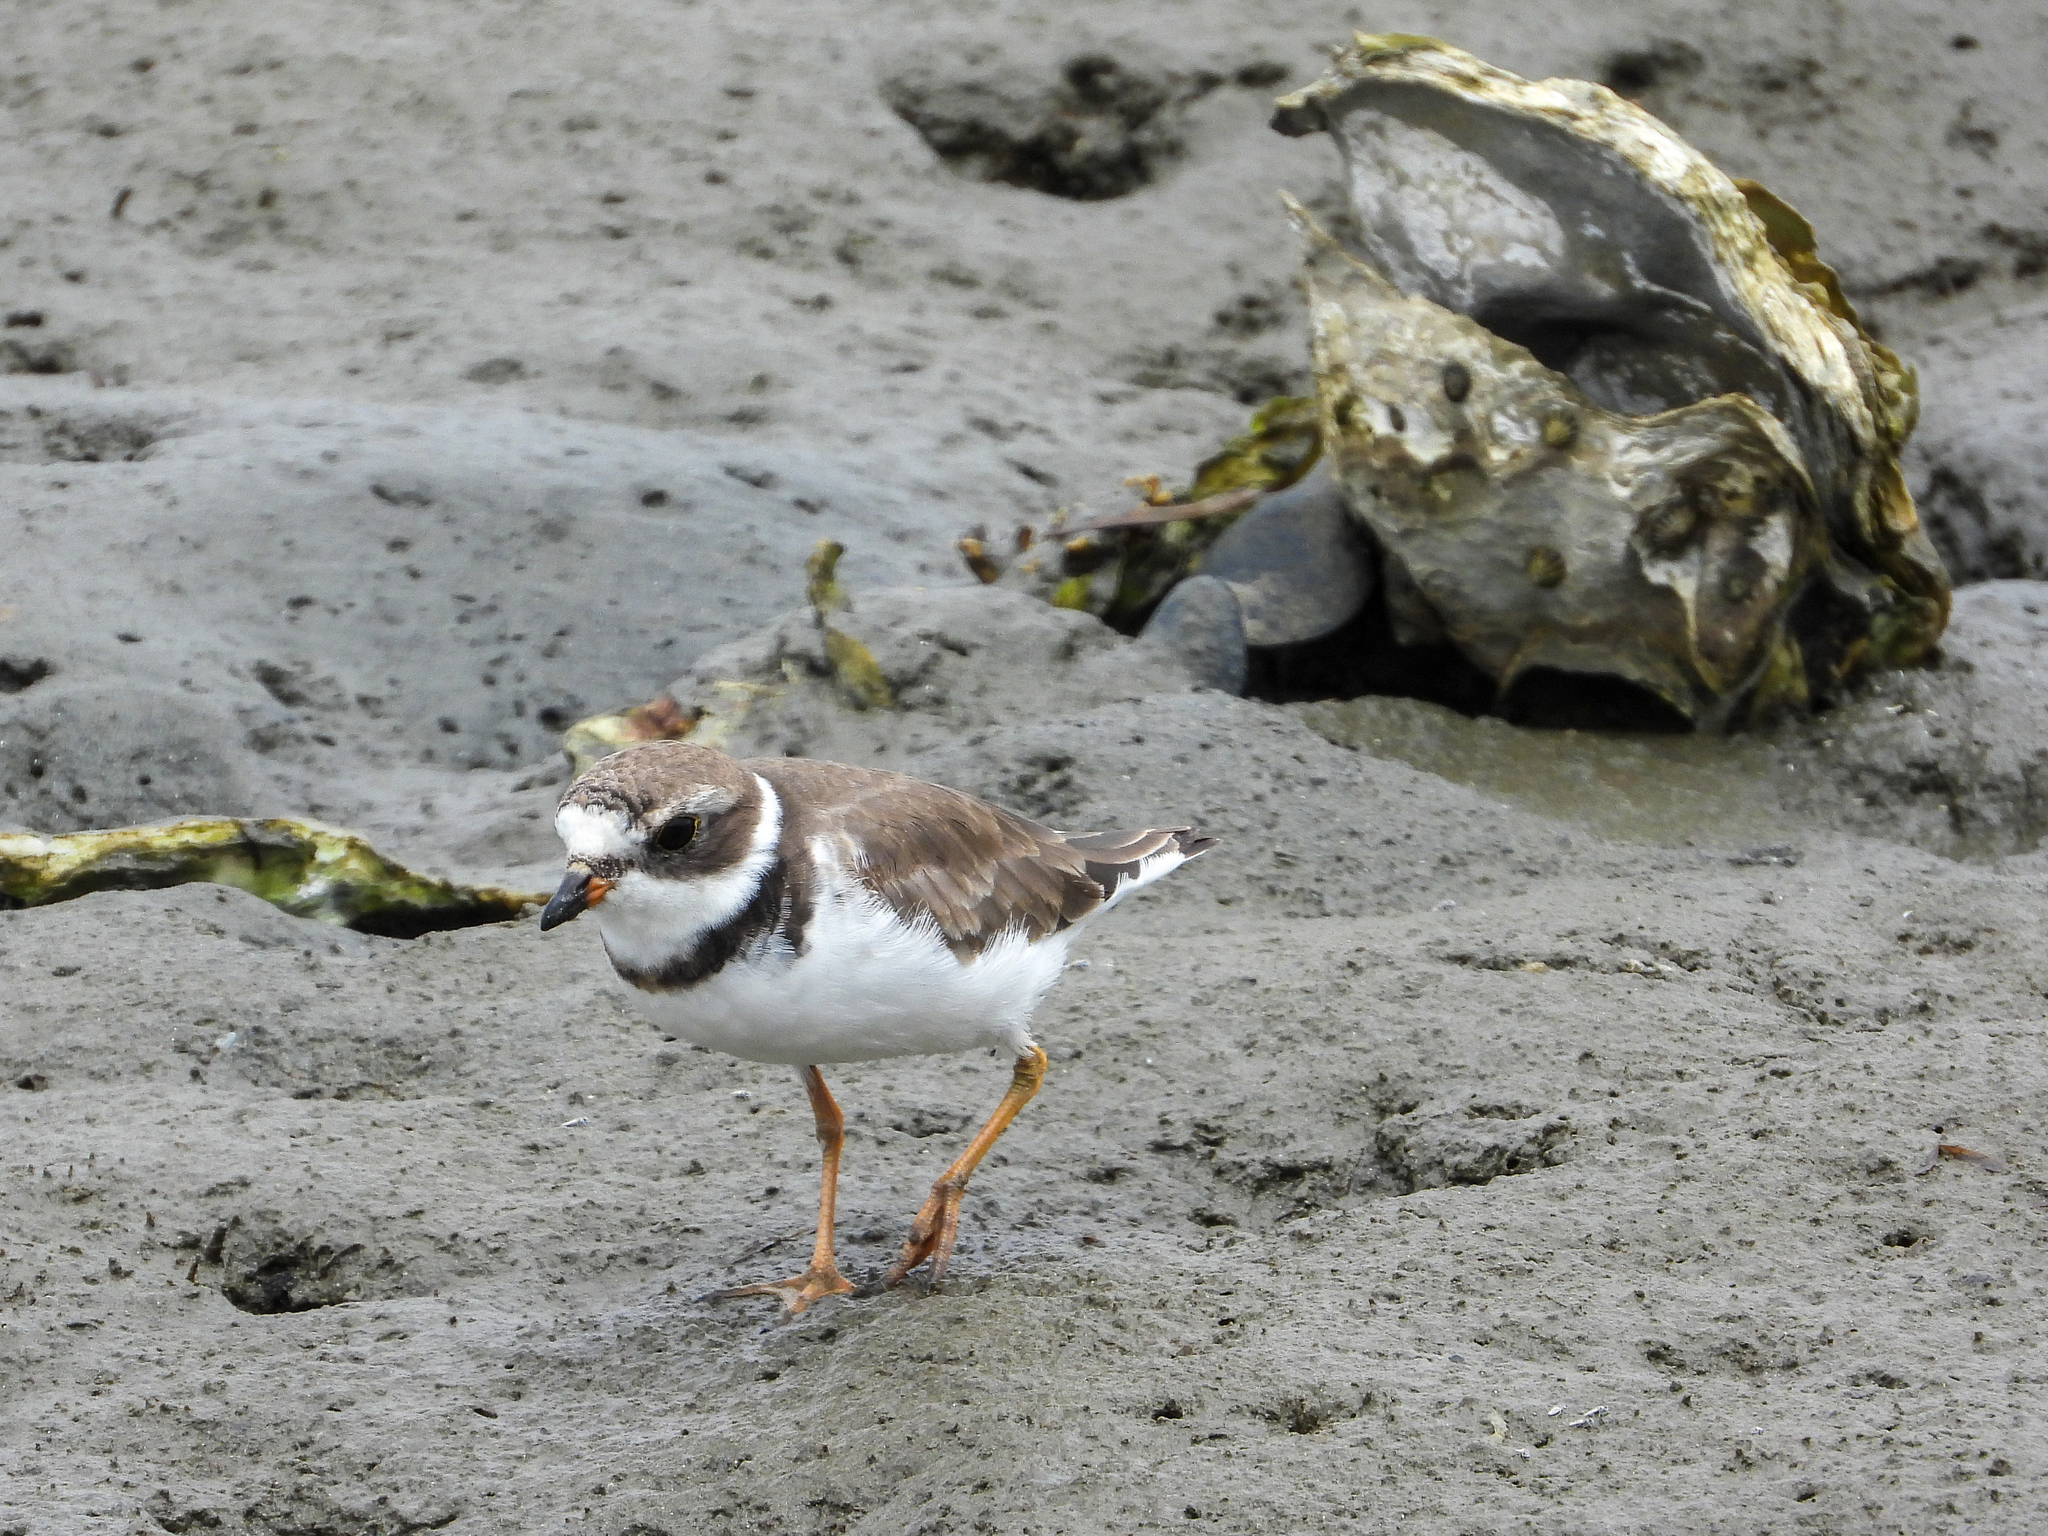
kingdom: Animalia
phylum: Chordata
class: Aves
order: Charadriiformes
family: Charadriidae
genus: Charadrius
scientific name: Charadrius semipalmatus
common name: Semipalmated plover
